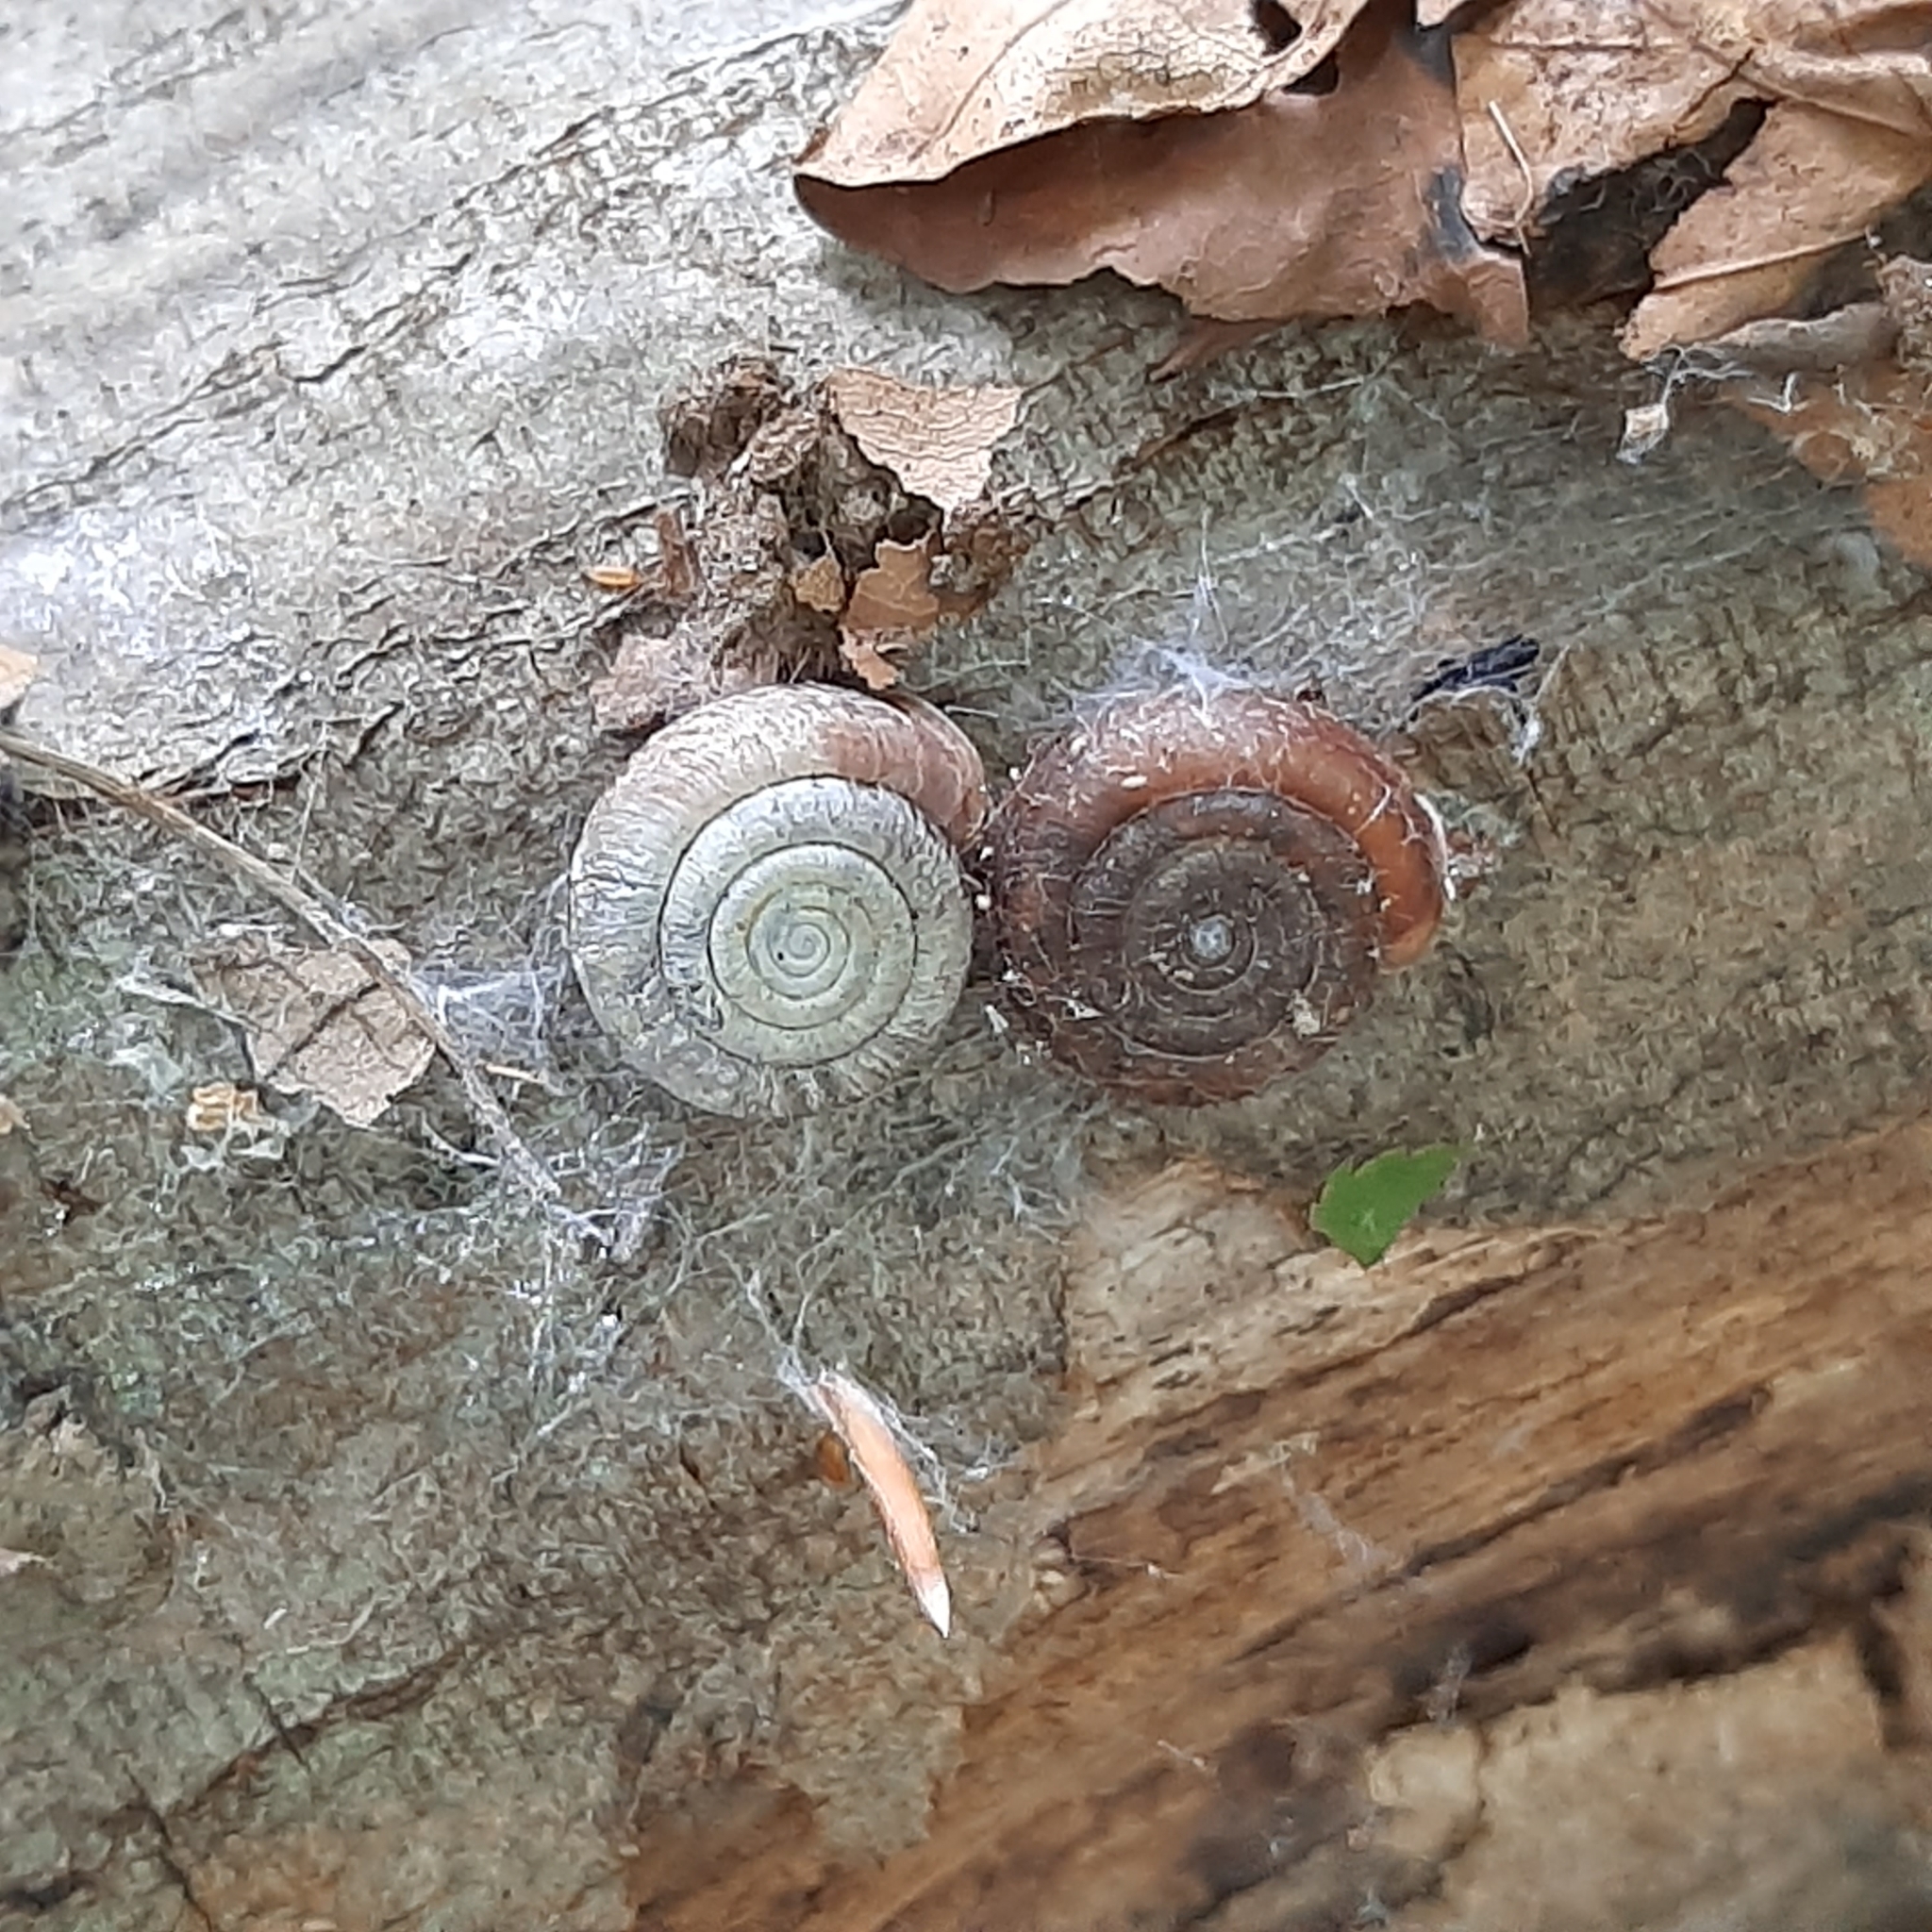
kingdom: Animalia
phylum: Mollusca
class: Gastropoda
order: Stylommatophora
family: Helicodontidae
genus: Helicodonta
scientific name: Helicodonta obvoluta
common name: Cheese snail
